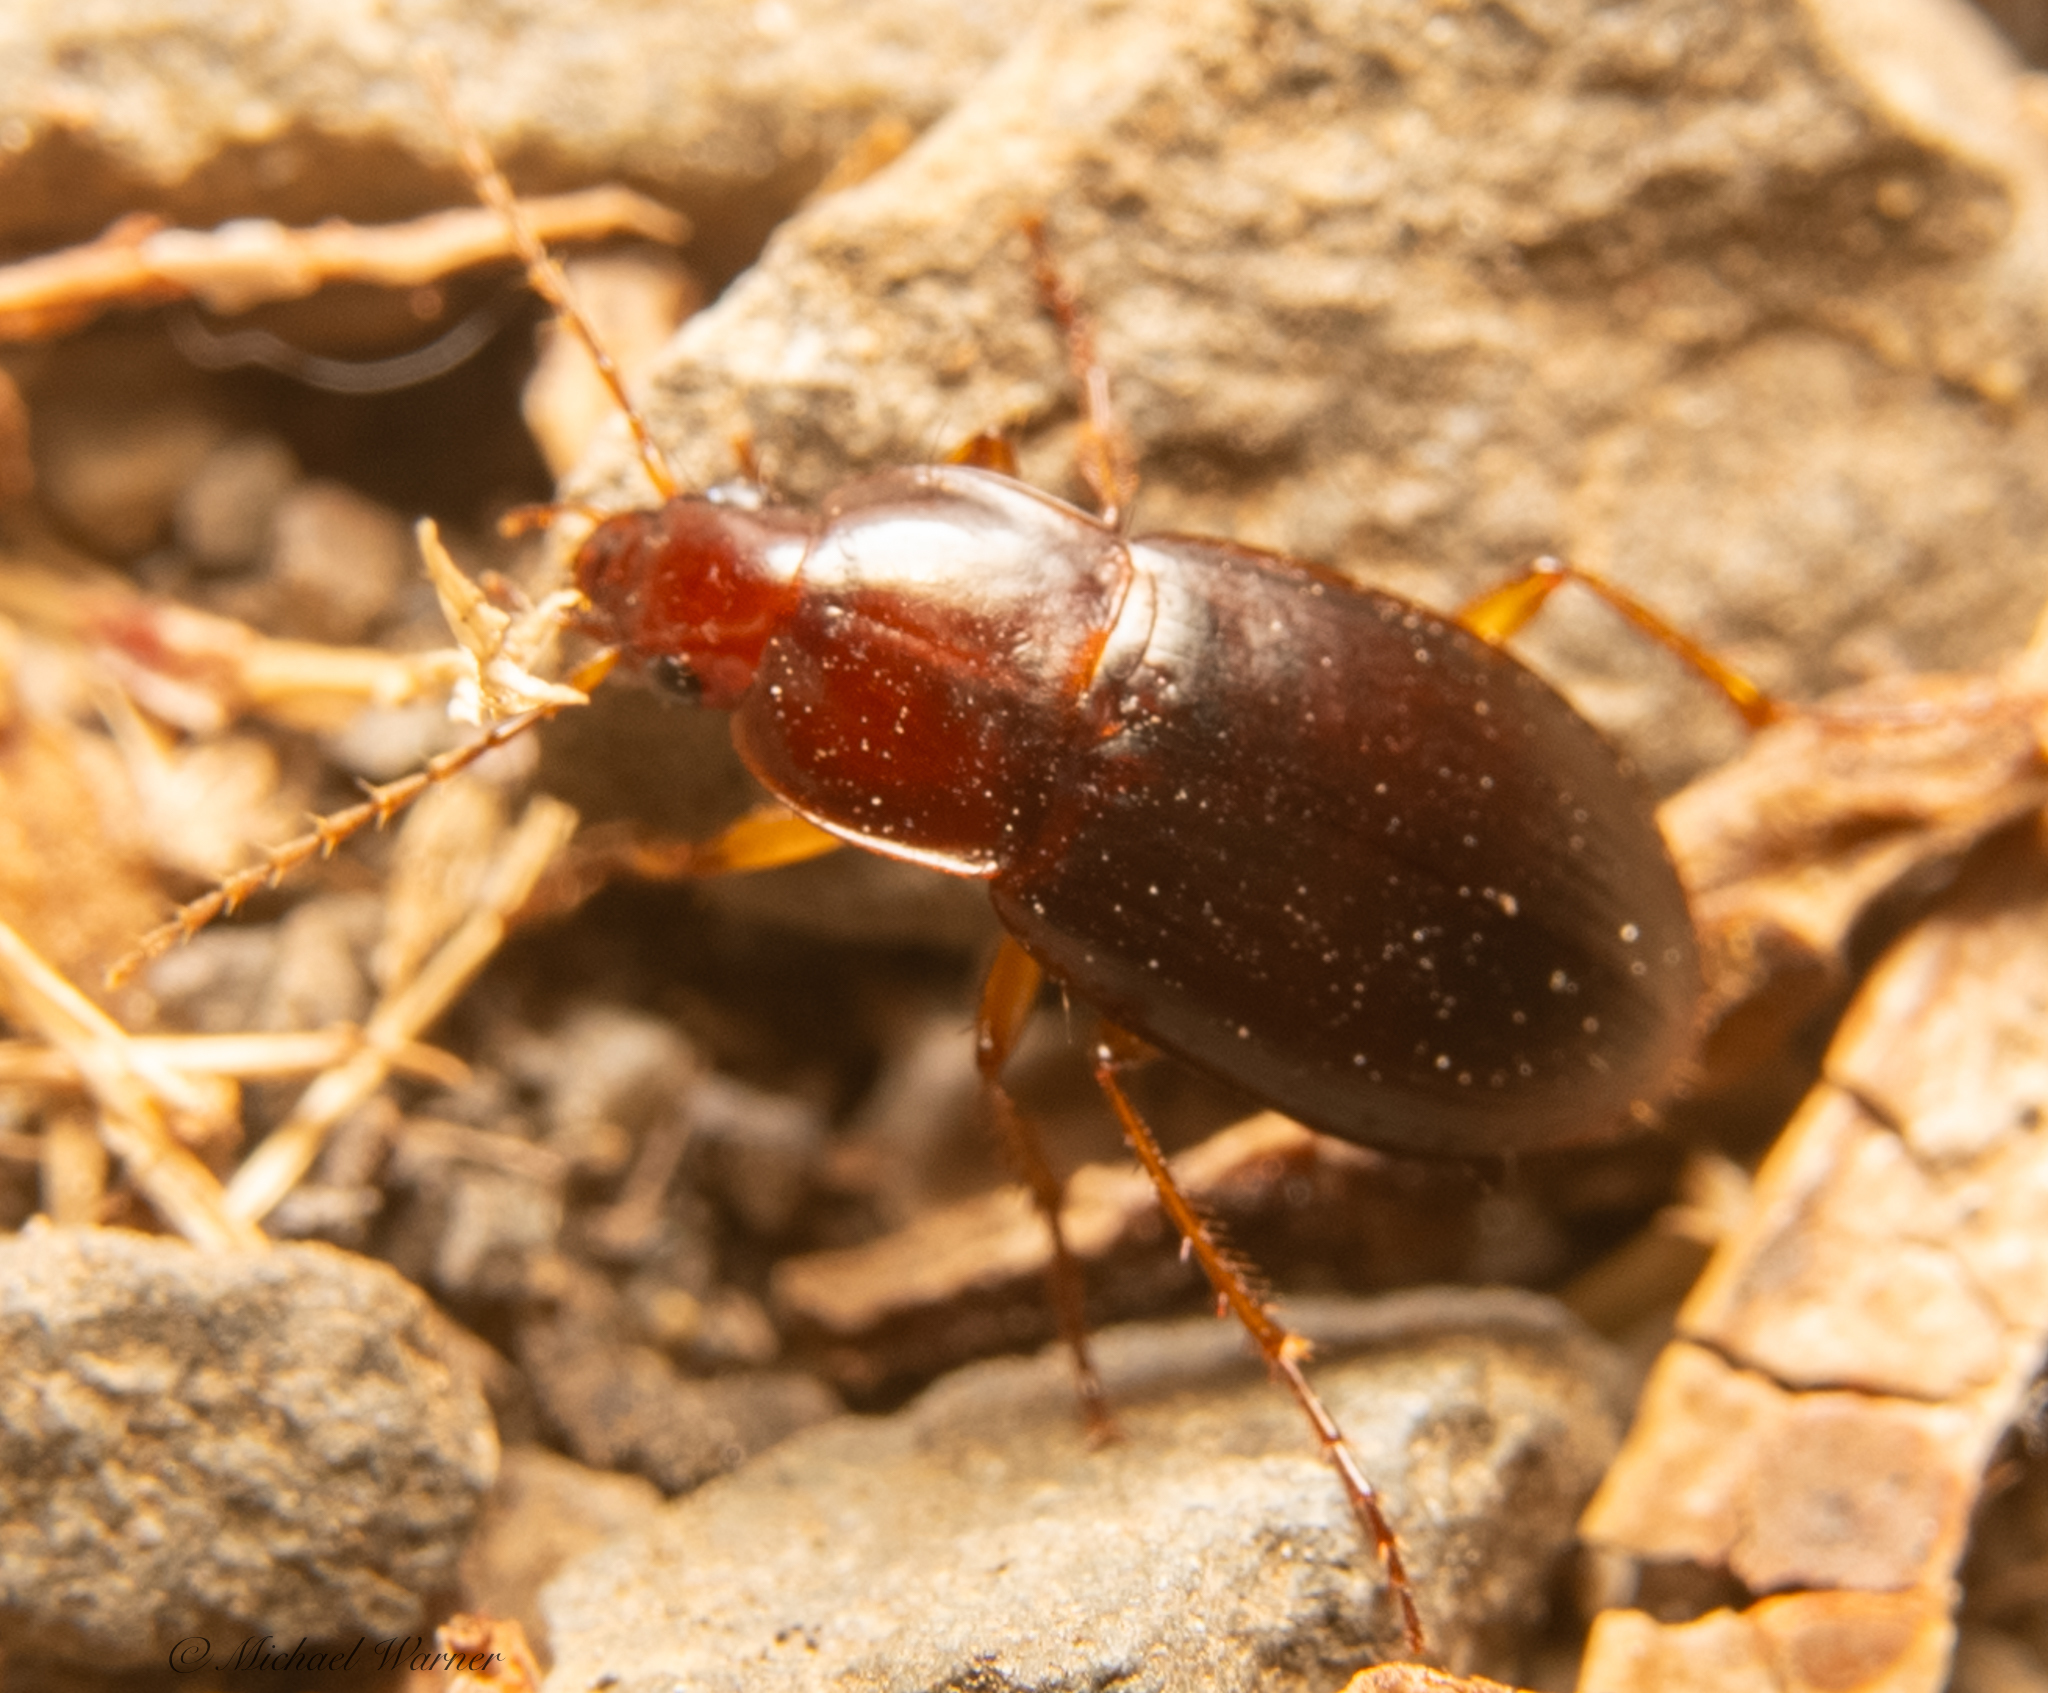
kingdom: Animalia
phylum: Arthropoda
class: Insecta
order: Coleoptera
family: Carabidae
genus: Calathus
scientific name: Calathus ruficollis
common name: Red-collared harp ground beetle
